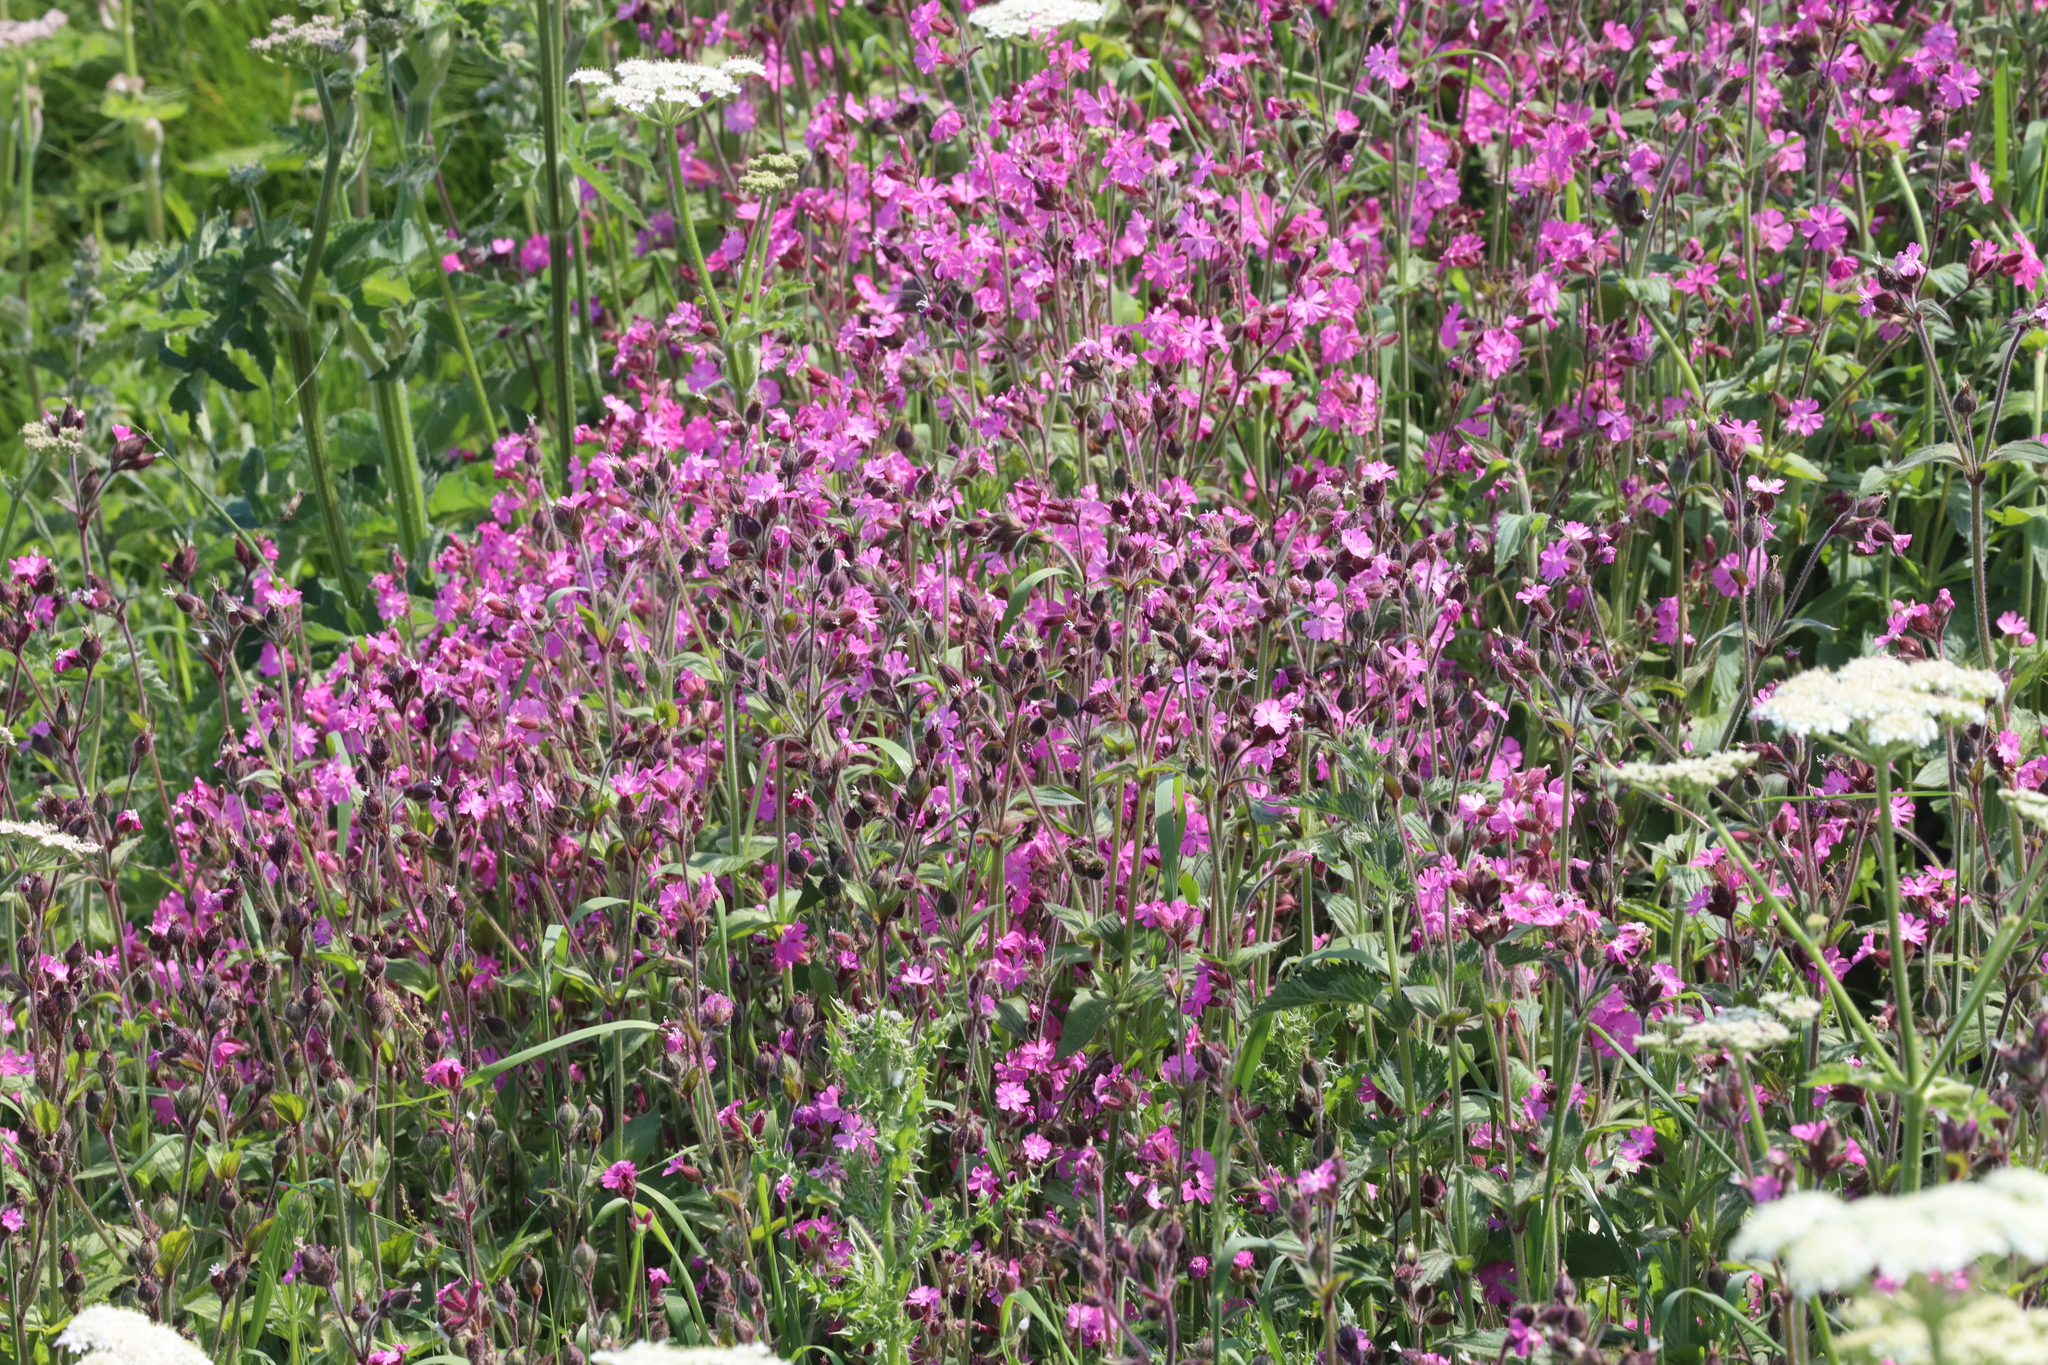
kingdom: Plantae
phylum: Tracheophyta
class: Magnoliopsida
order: Caryophyllales
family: Caryophyllaceae
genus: Silene
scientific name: Silene dioica
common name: Red campion
